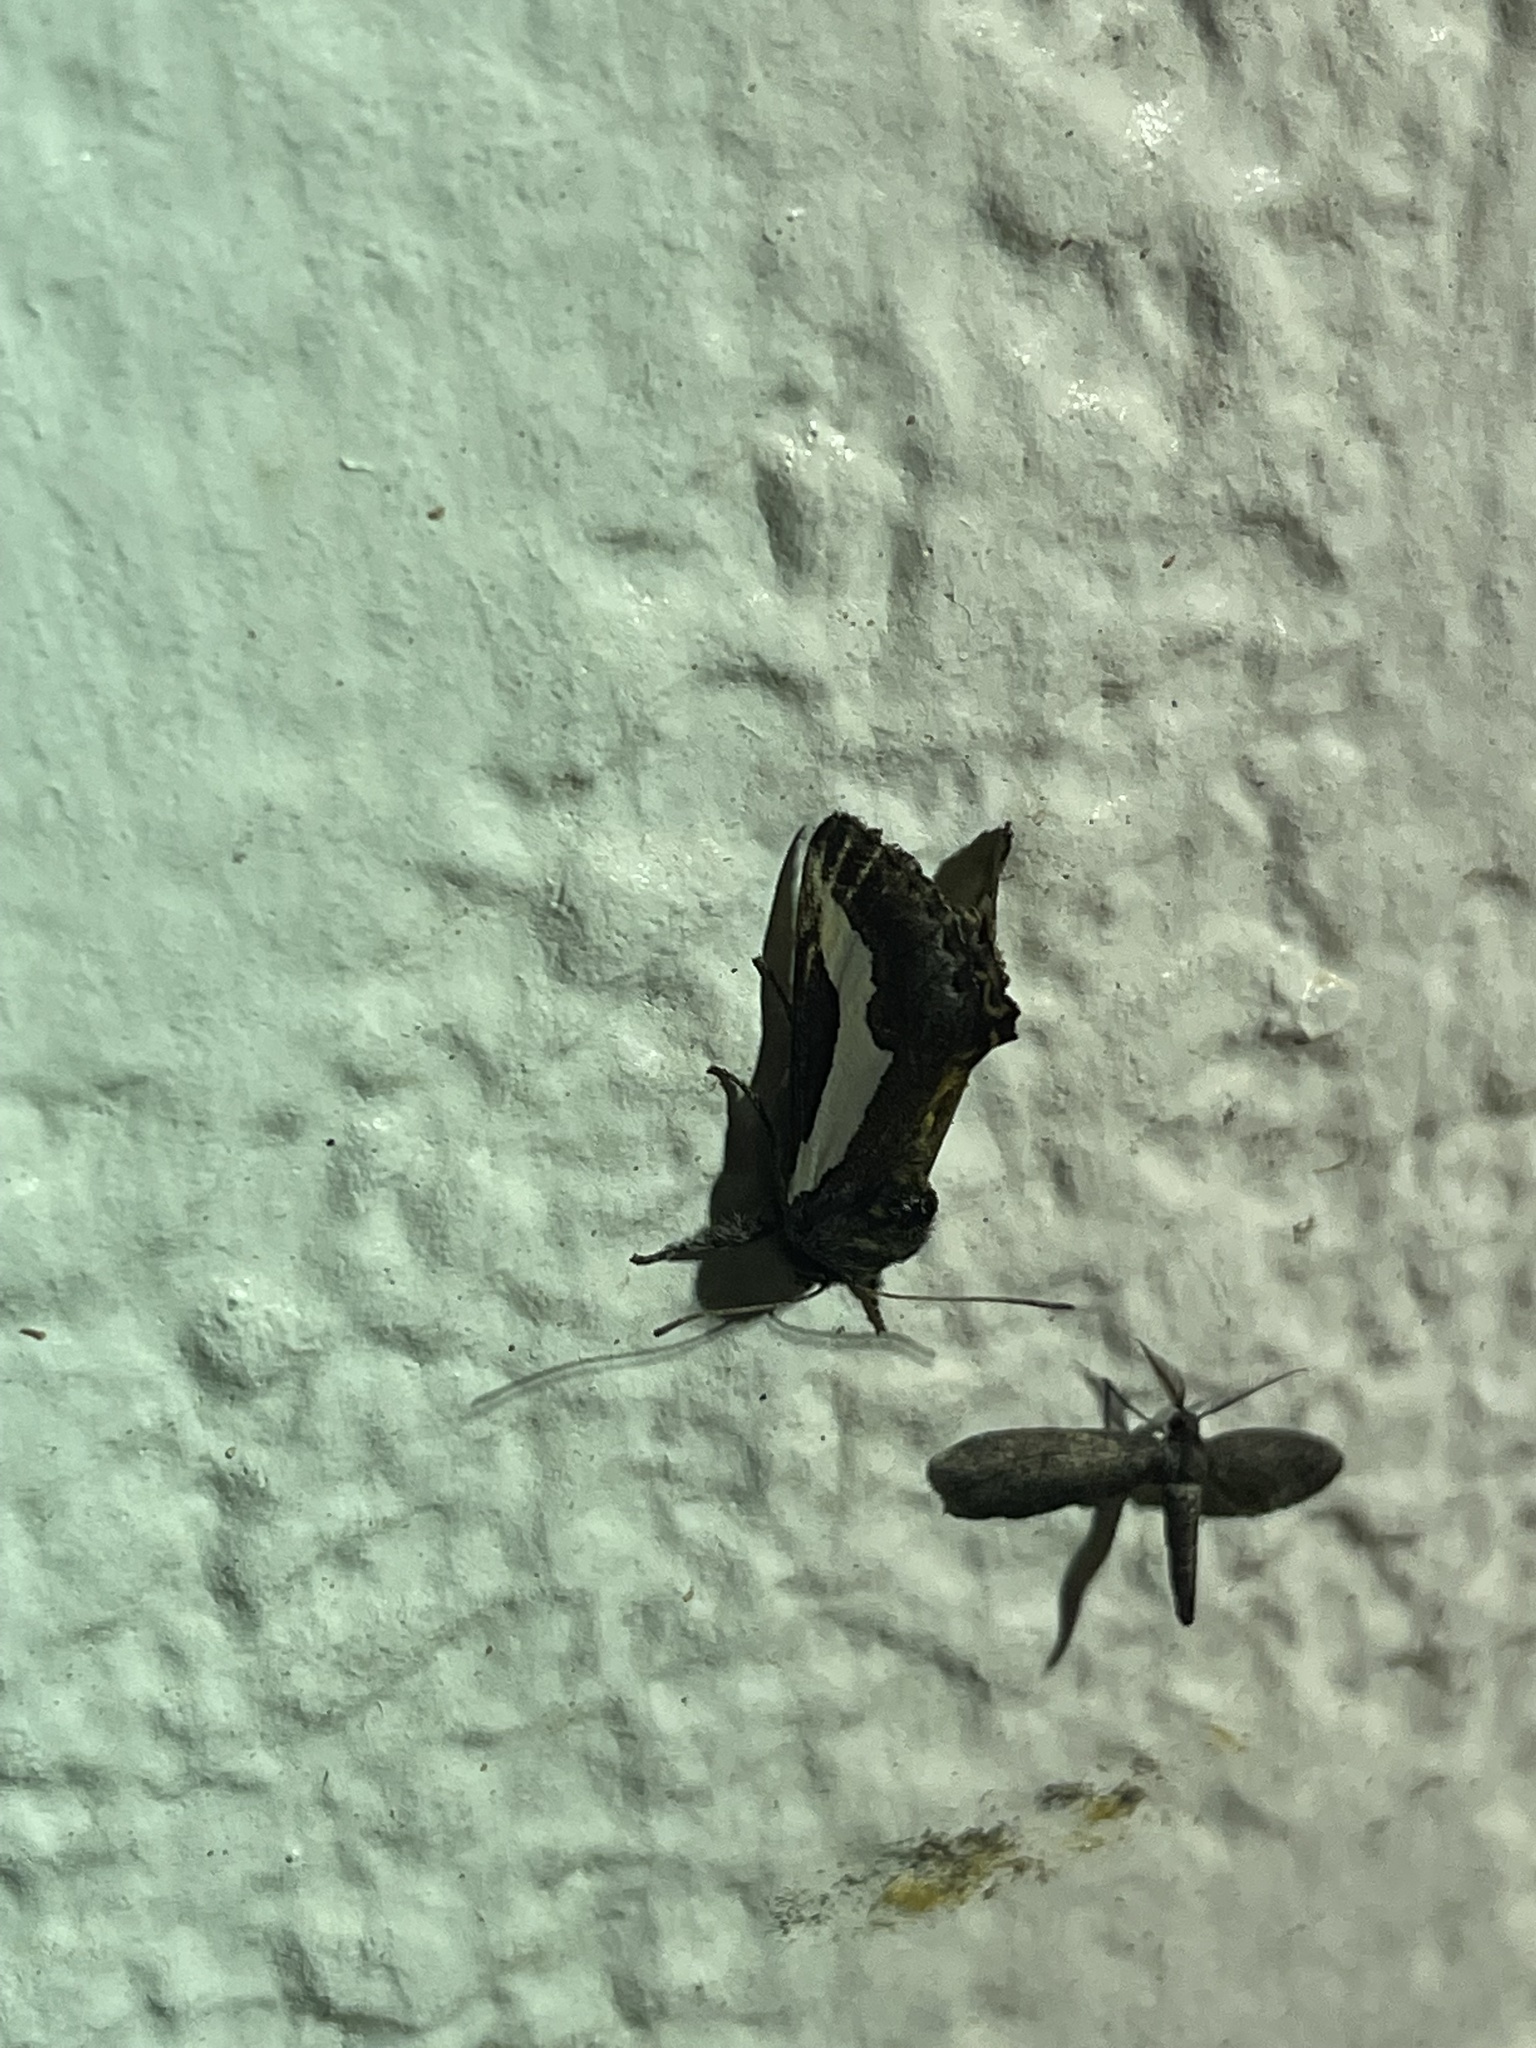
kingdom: Animalia
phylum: Arthropoda
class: Insecta
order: Lepidoptera
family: Noctuidae
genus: Euscirrhopterus
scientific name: Euscirrhopterus cosyra
